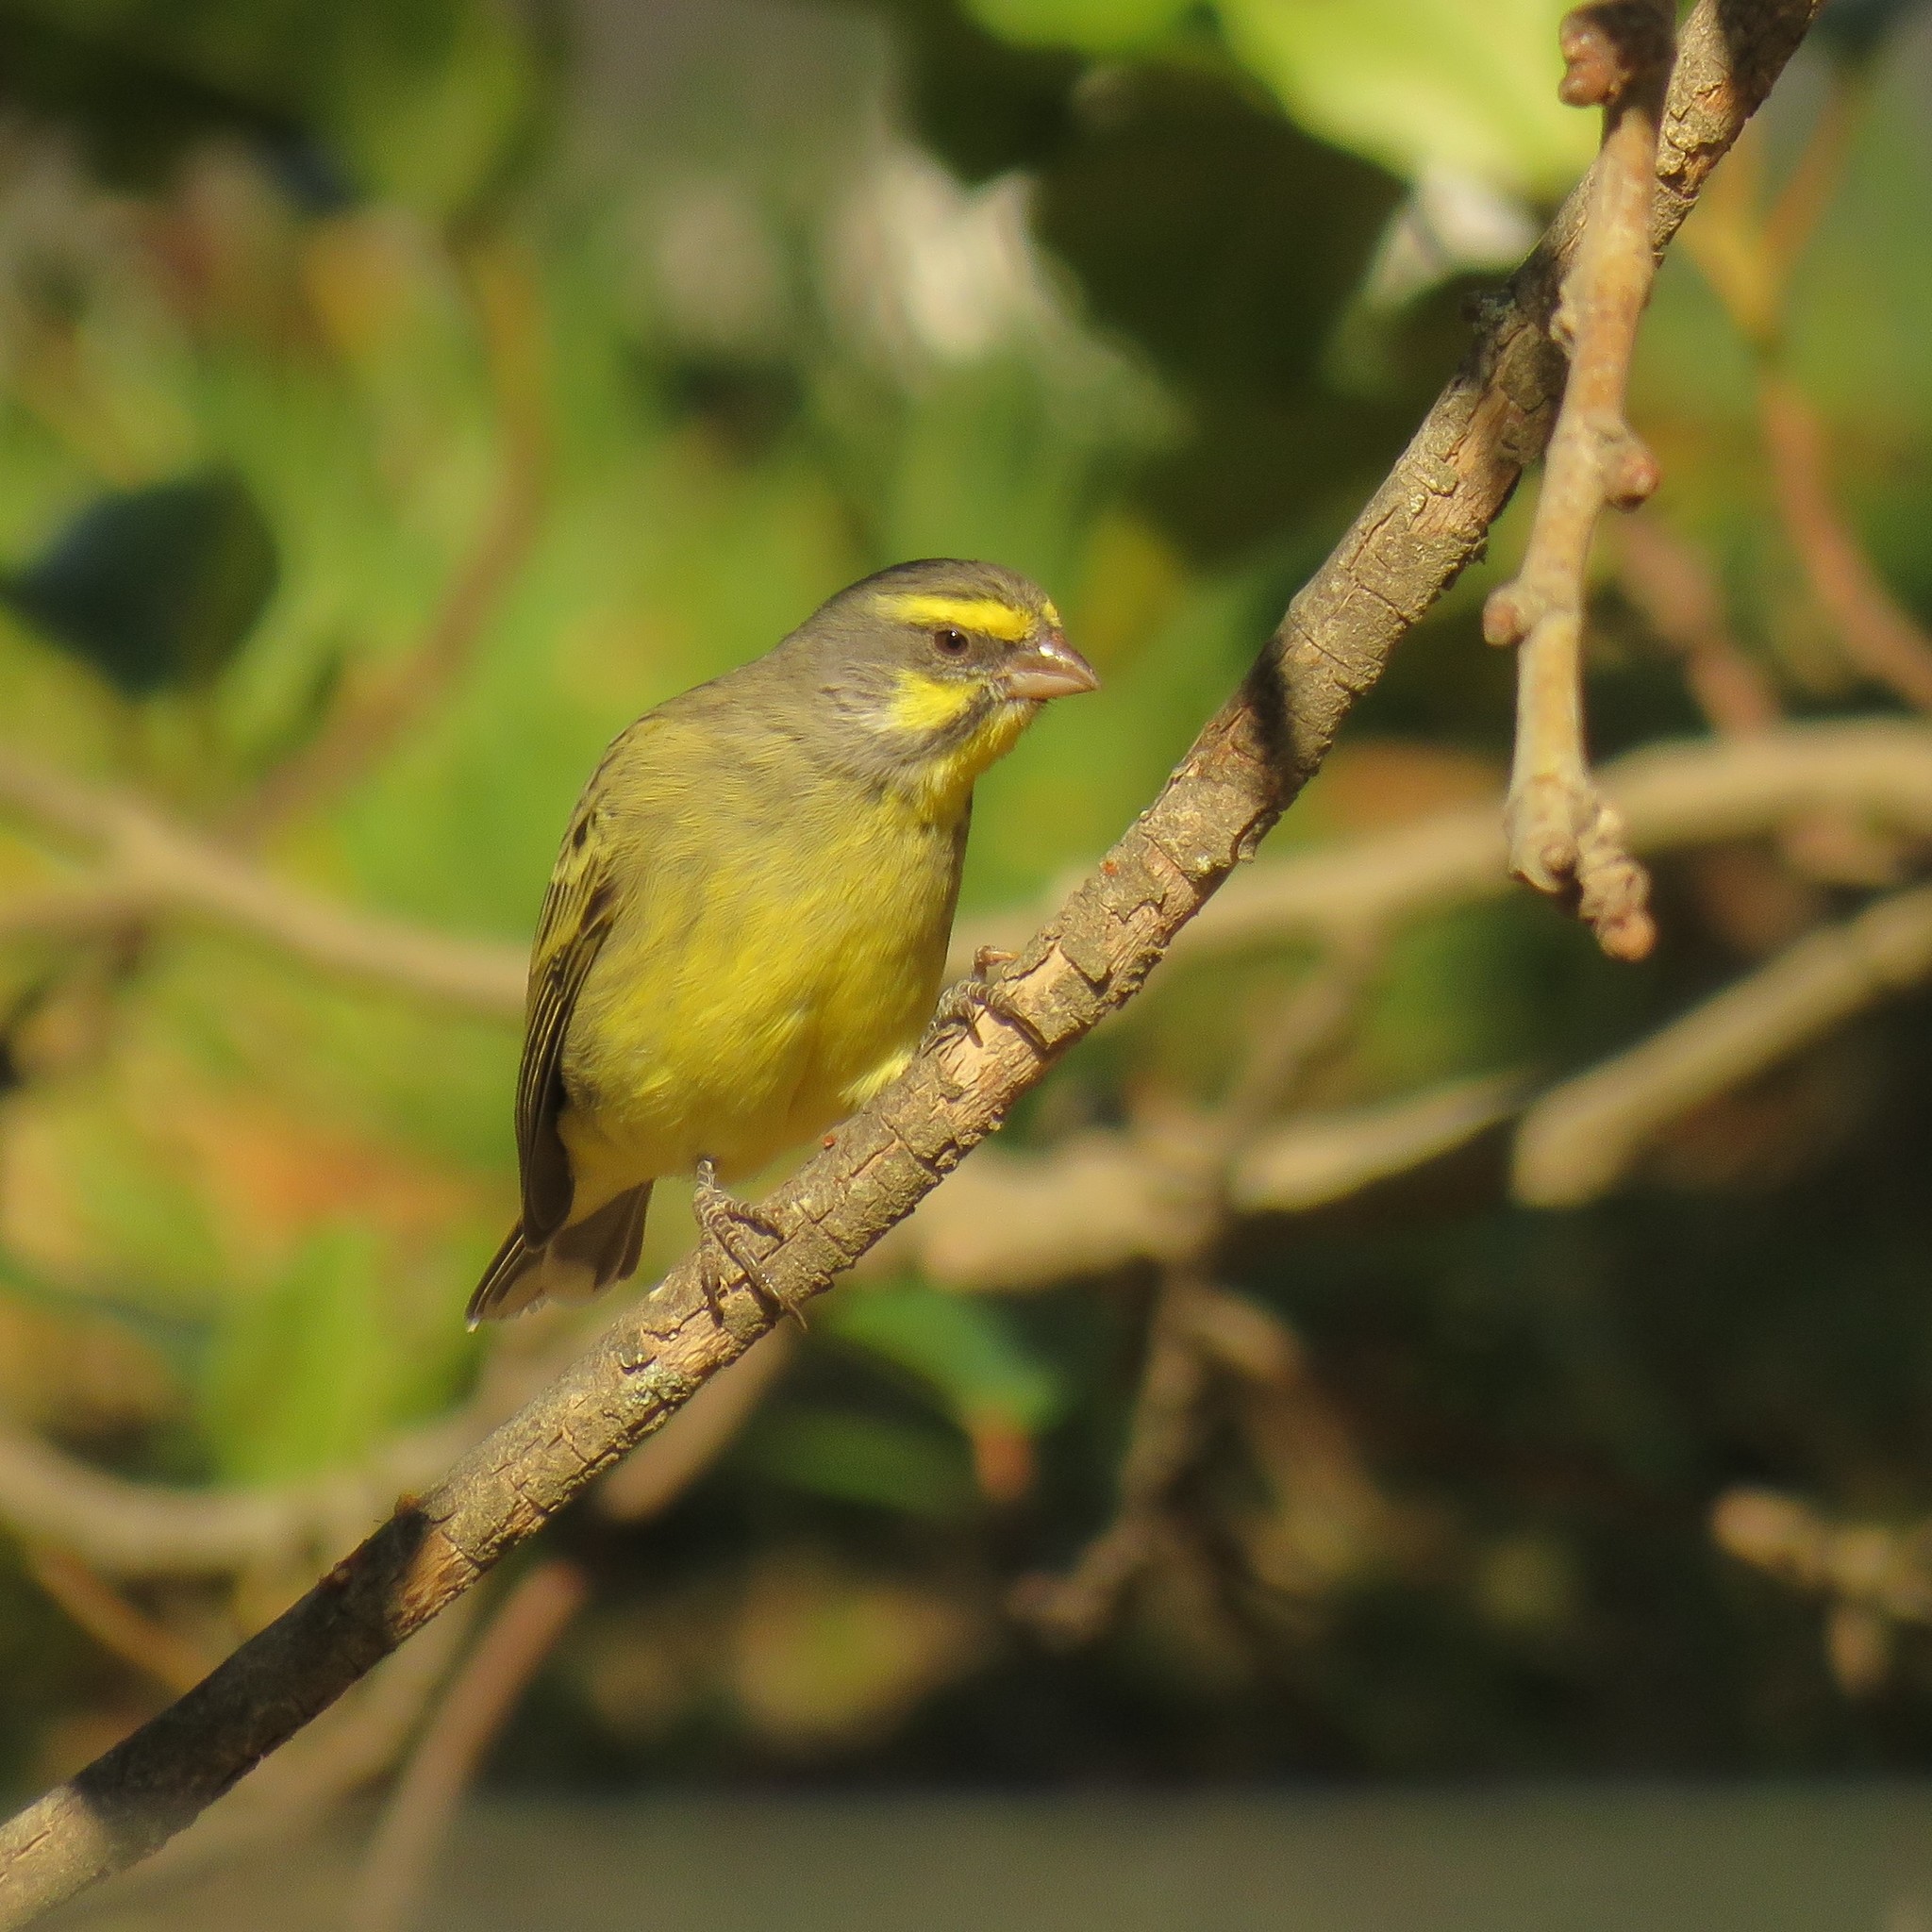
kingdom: Animalia
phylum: Chordata
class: Aves
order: Passeriformes
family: Fringillidae
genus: Crithagra
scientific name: Crithagra mozambica
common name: Yellow-fronted canary
